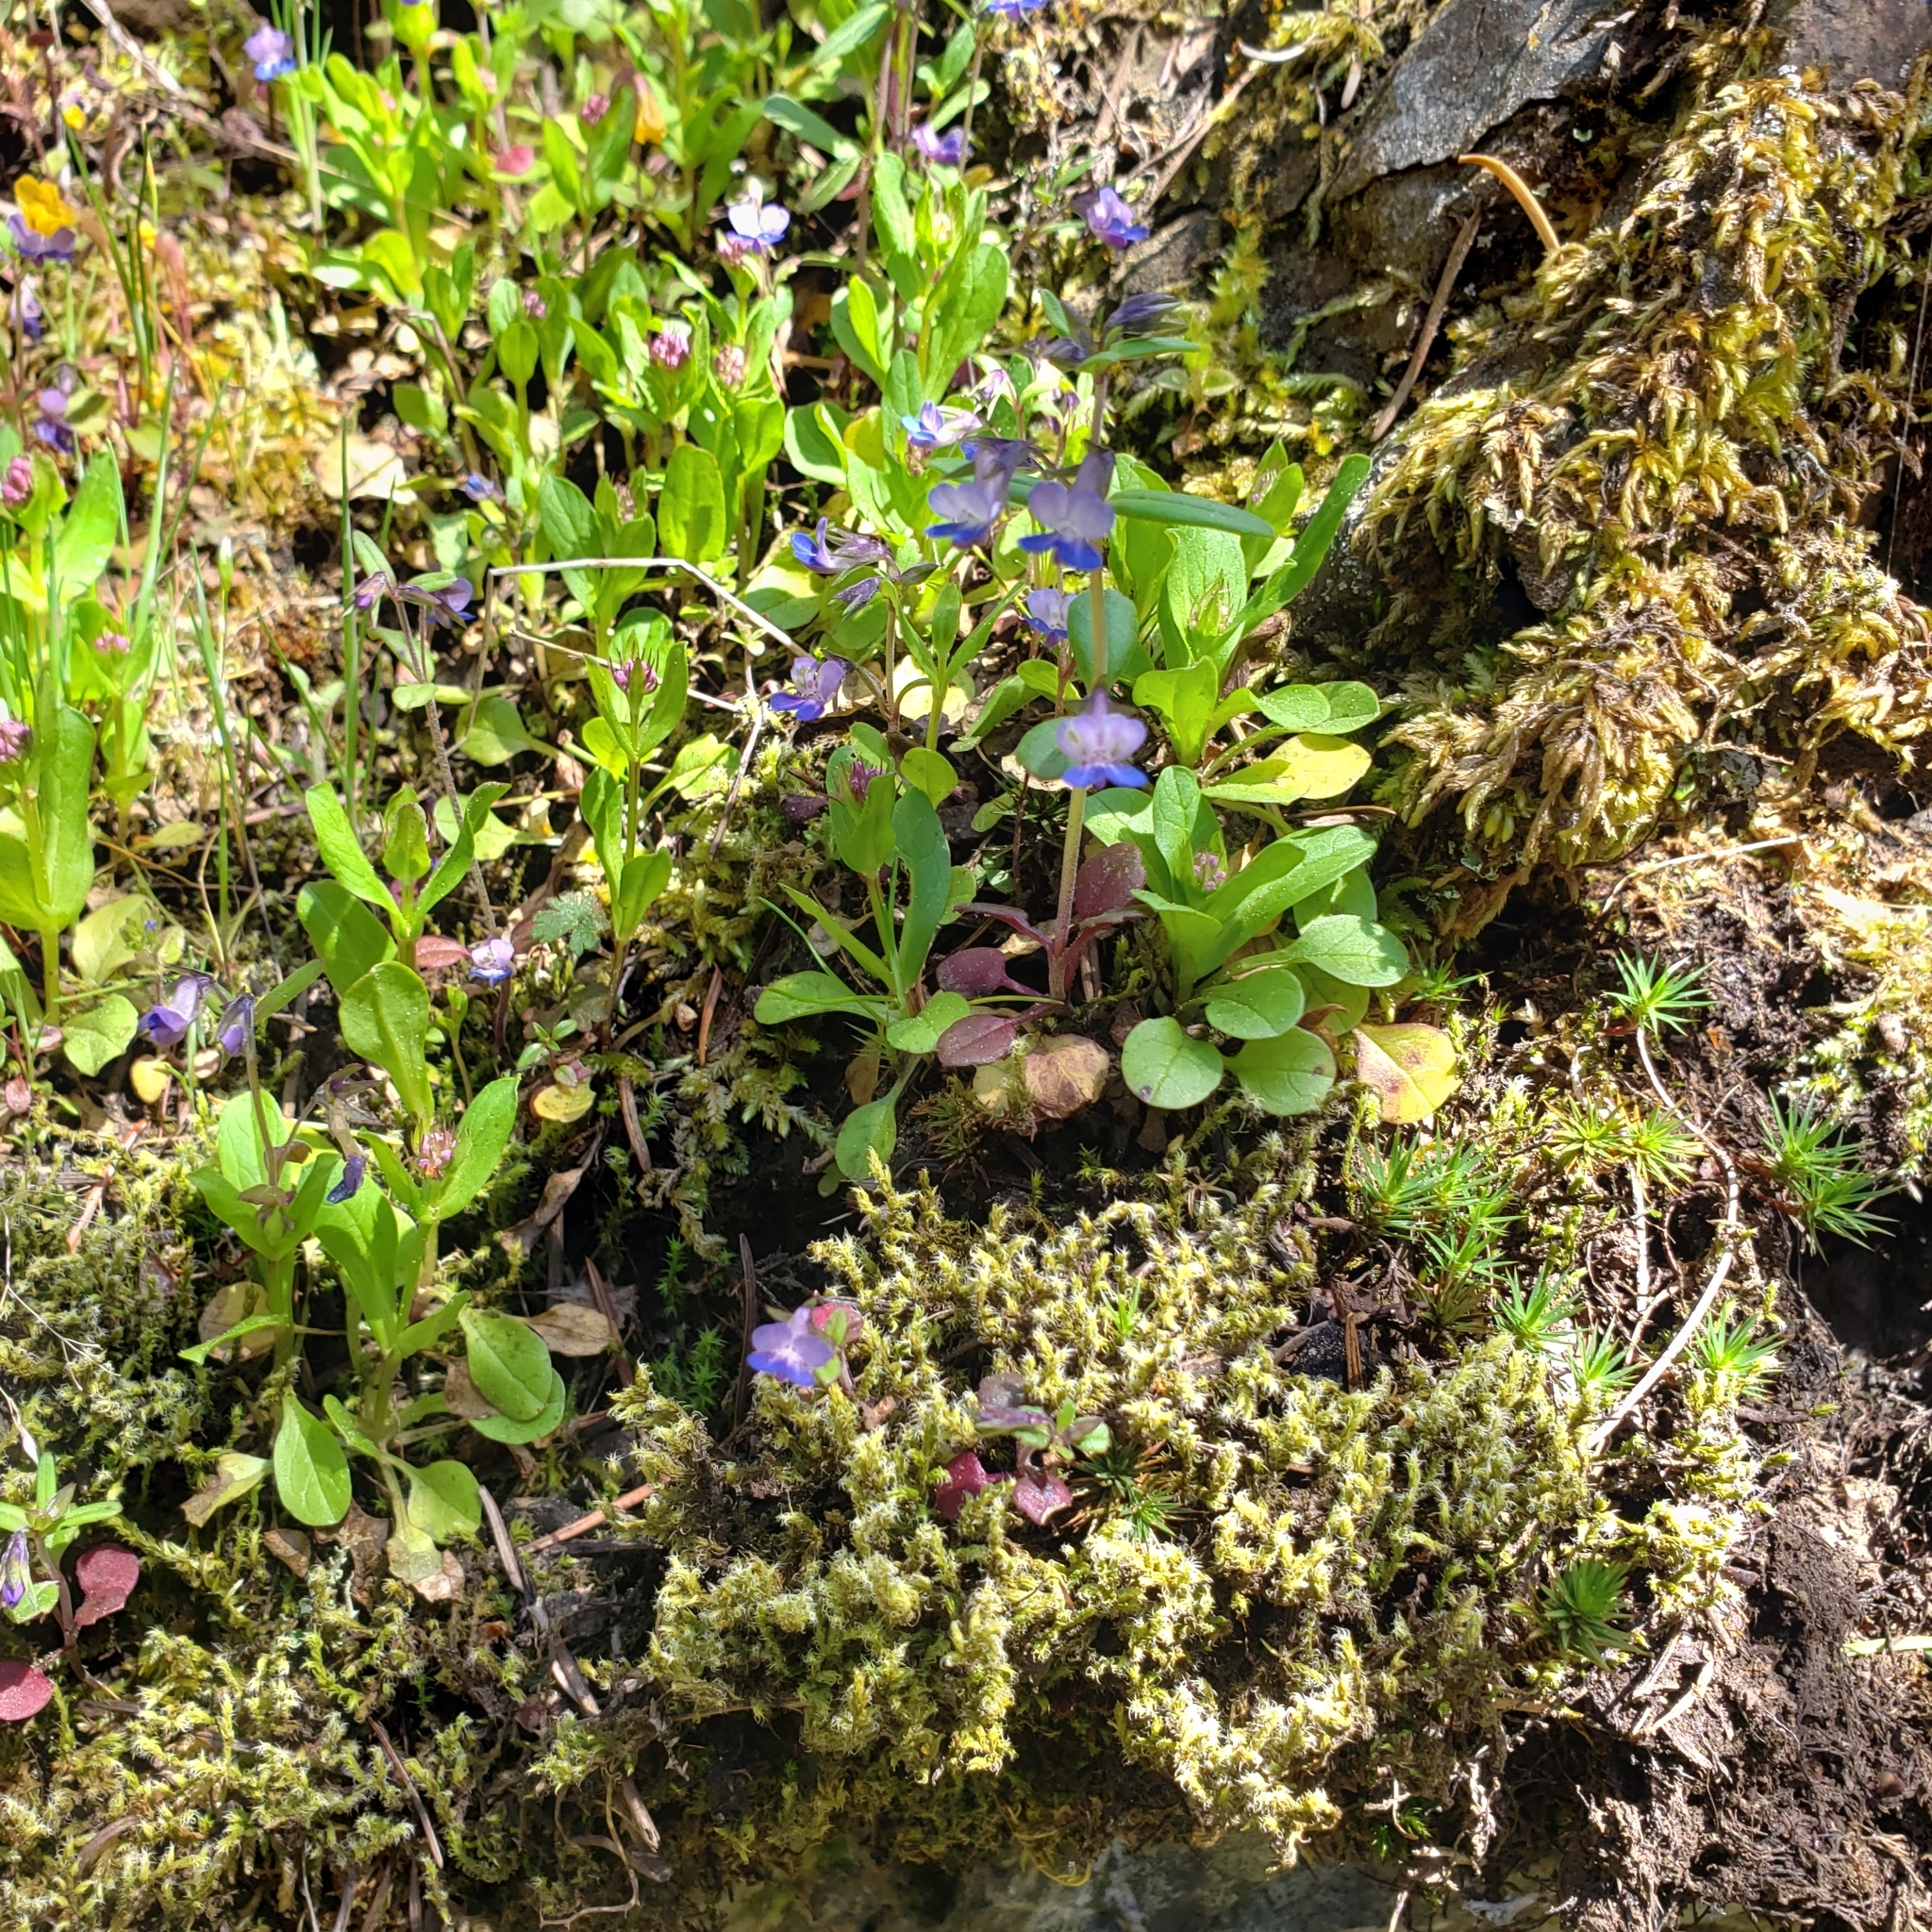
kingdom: Plantae
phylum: Tracheophyta
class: Magnoliopsida
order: Lamiales
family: Plantaginaceae
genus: Collinsia
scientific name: Collinsia parviflora
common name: Blue-lips
